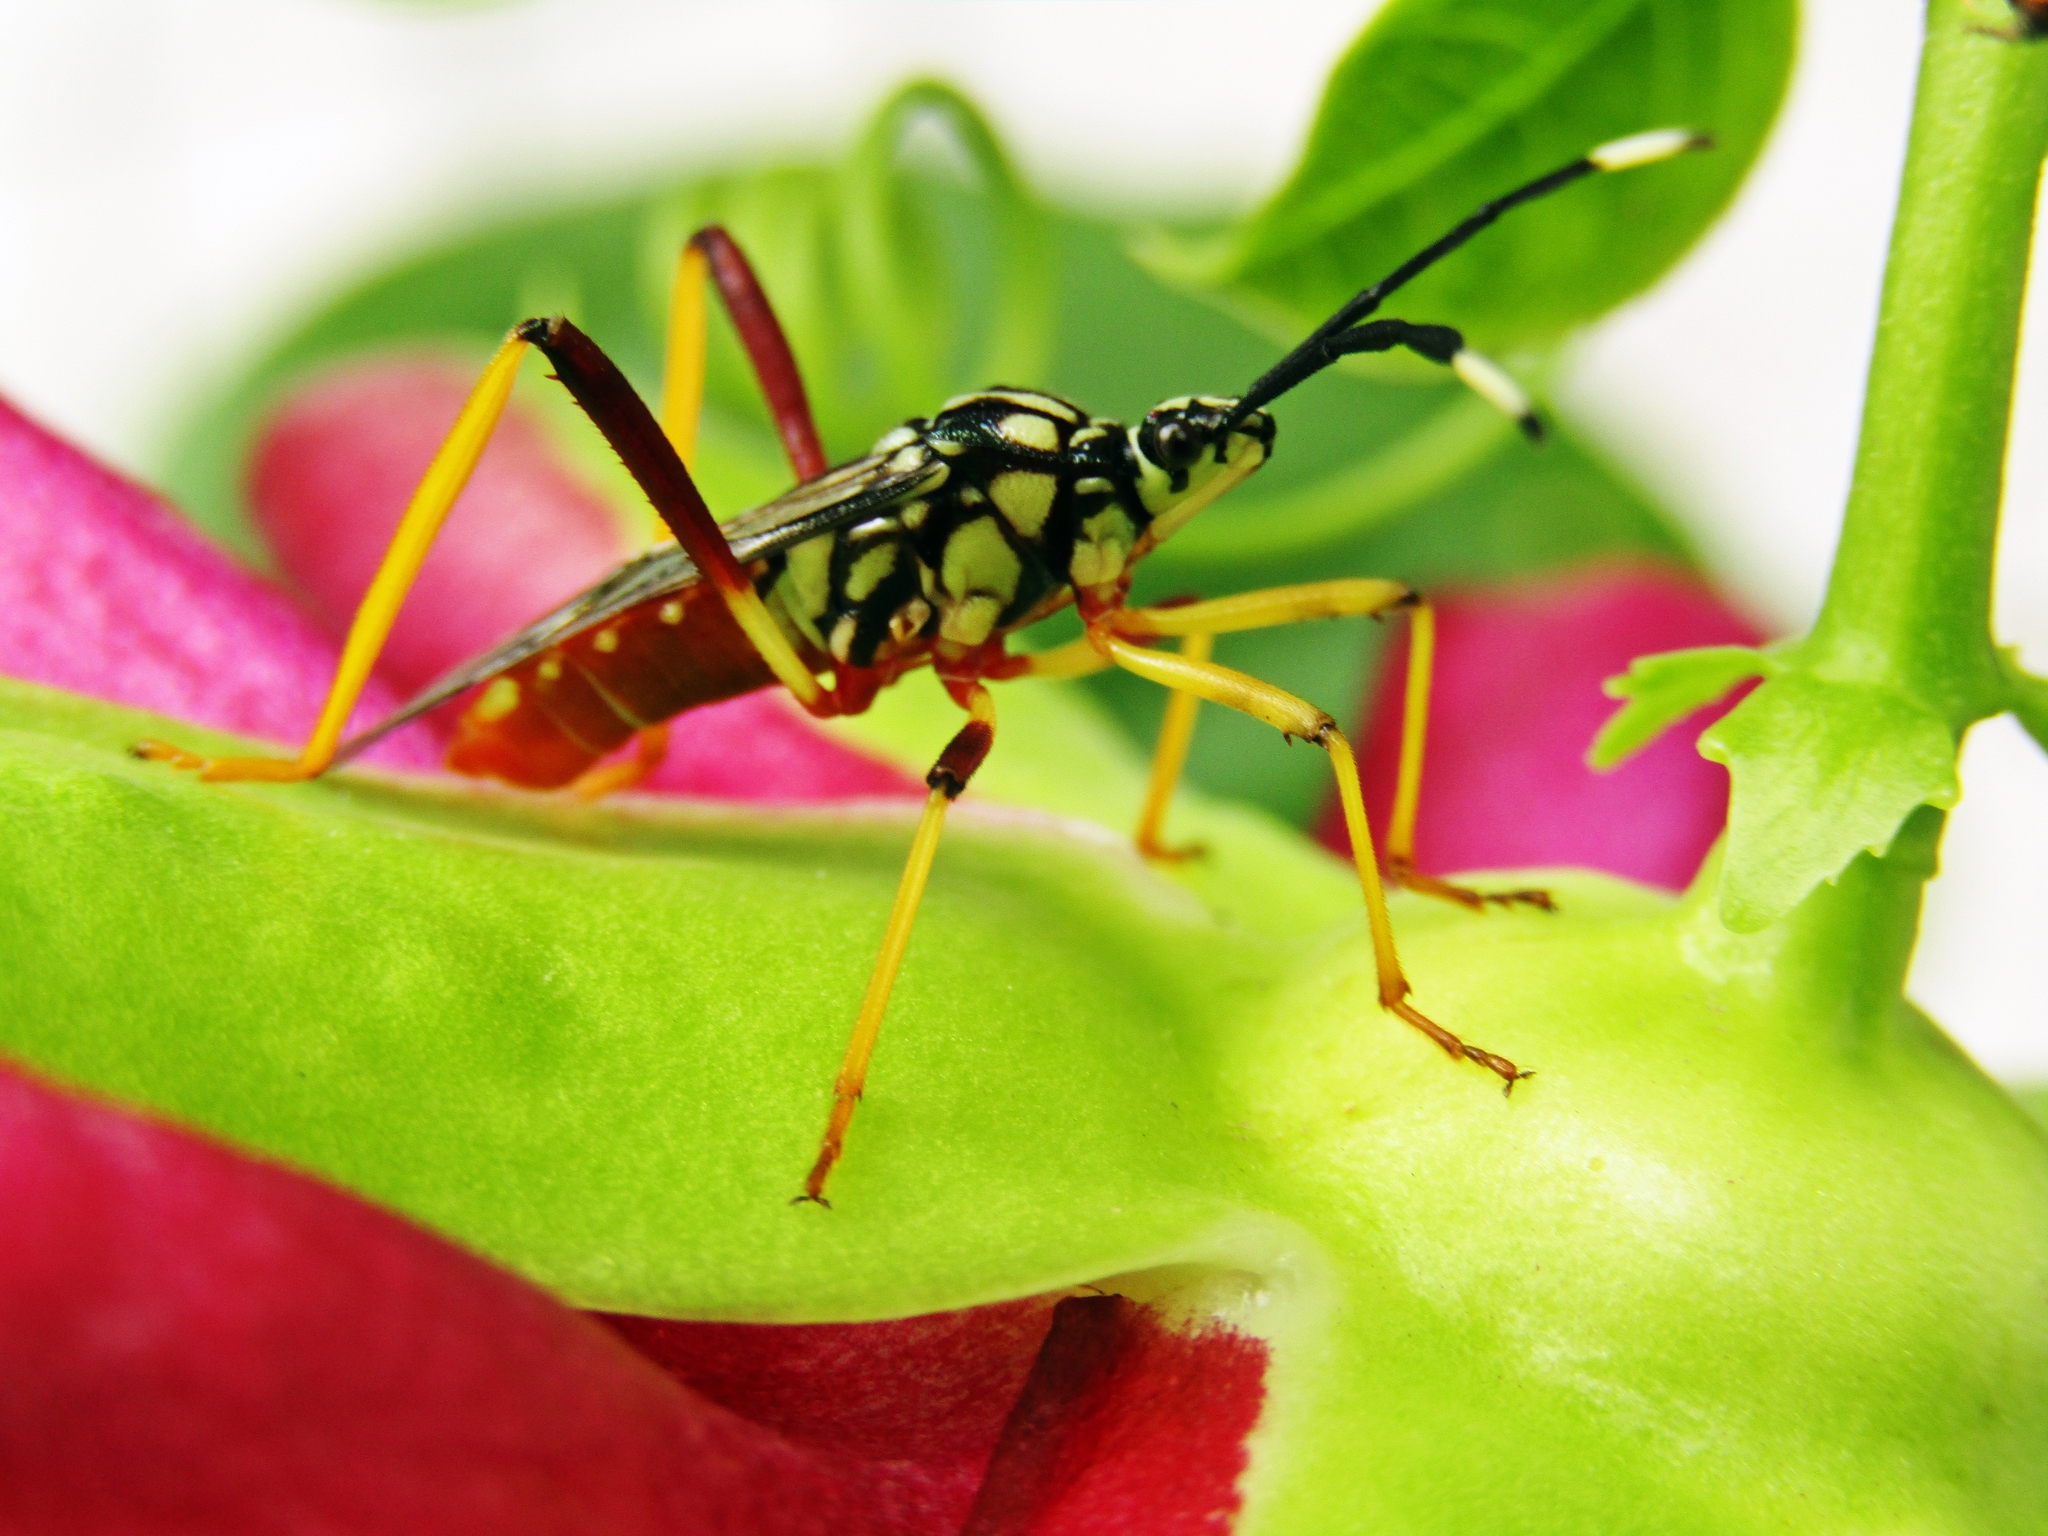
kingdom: Animalia
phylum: Arthropoda
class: Insecta
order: Hemiptera
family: Coreidae
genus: Holhymenia
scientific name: Holhymenia histrio
